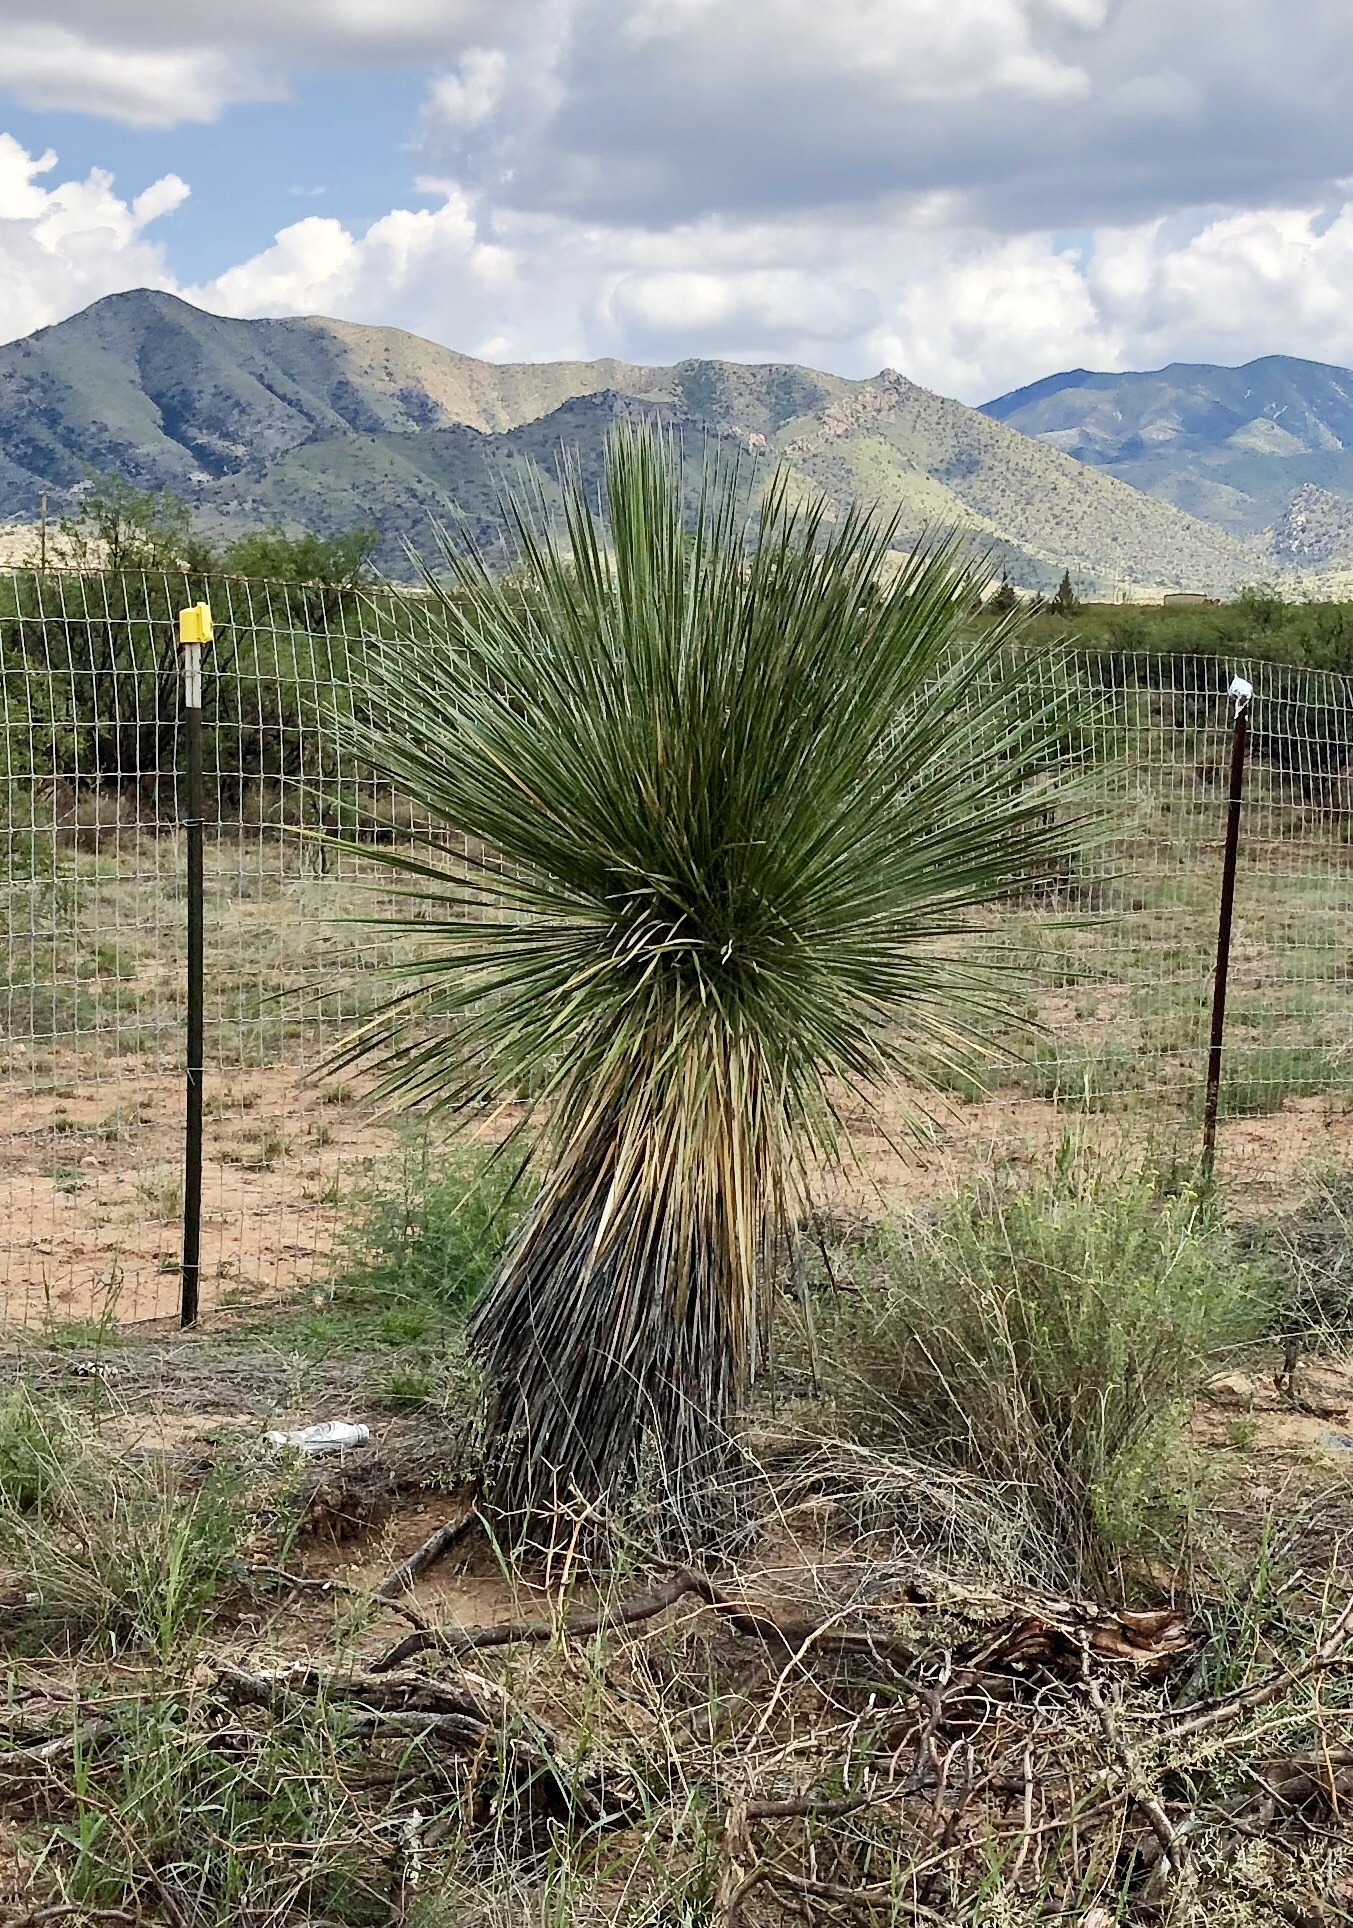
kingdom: Plantae
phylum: Tracheophyta
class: Liliopsida
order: Asparagales
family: Asparagaceae
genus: Yucca
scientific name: Yucca elata
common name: Palmella
